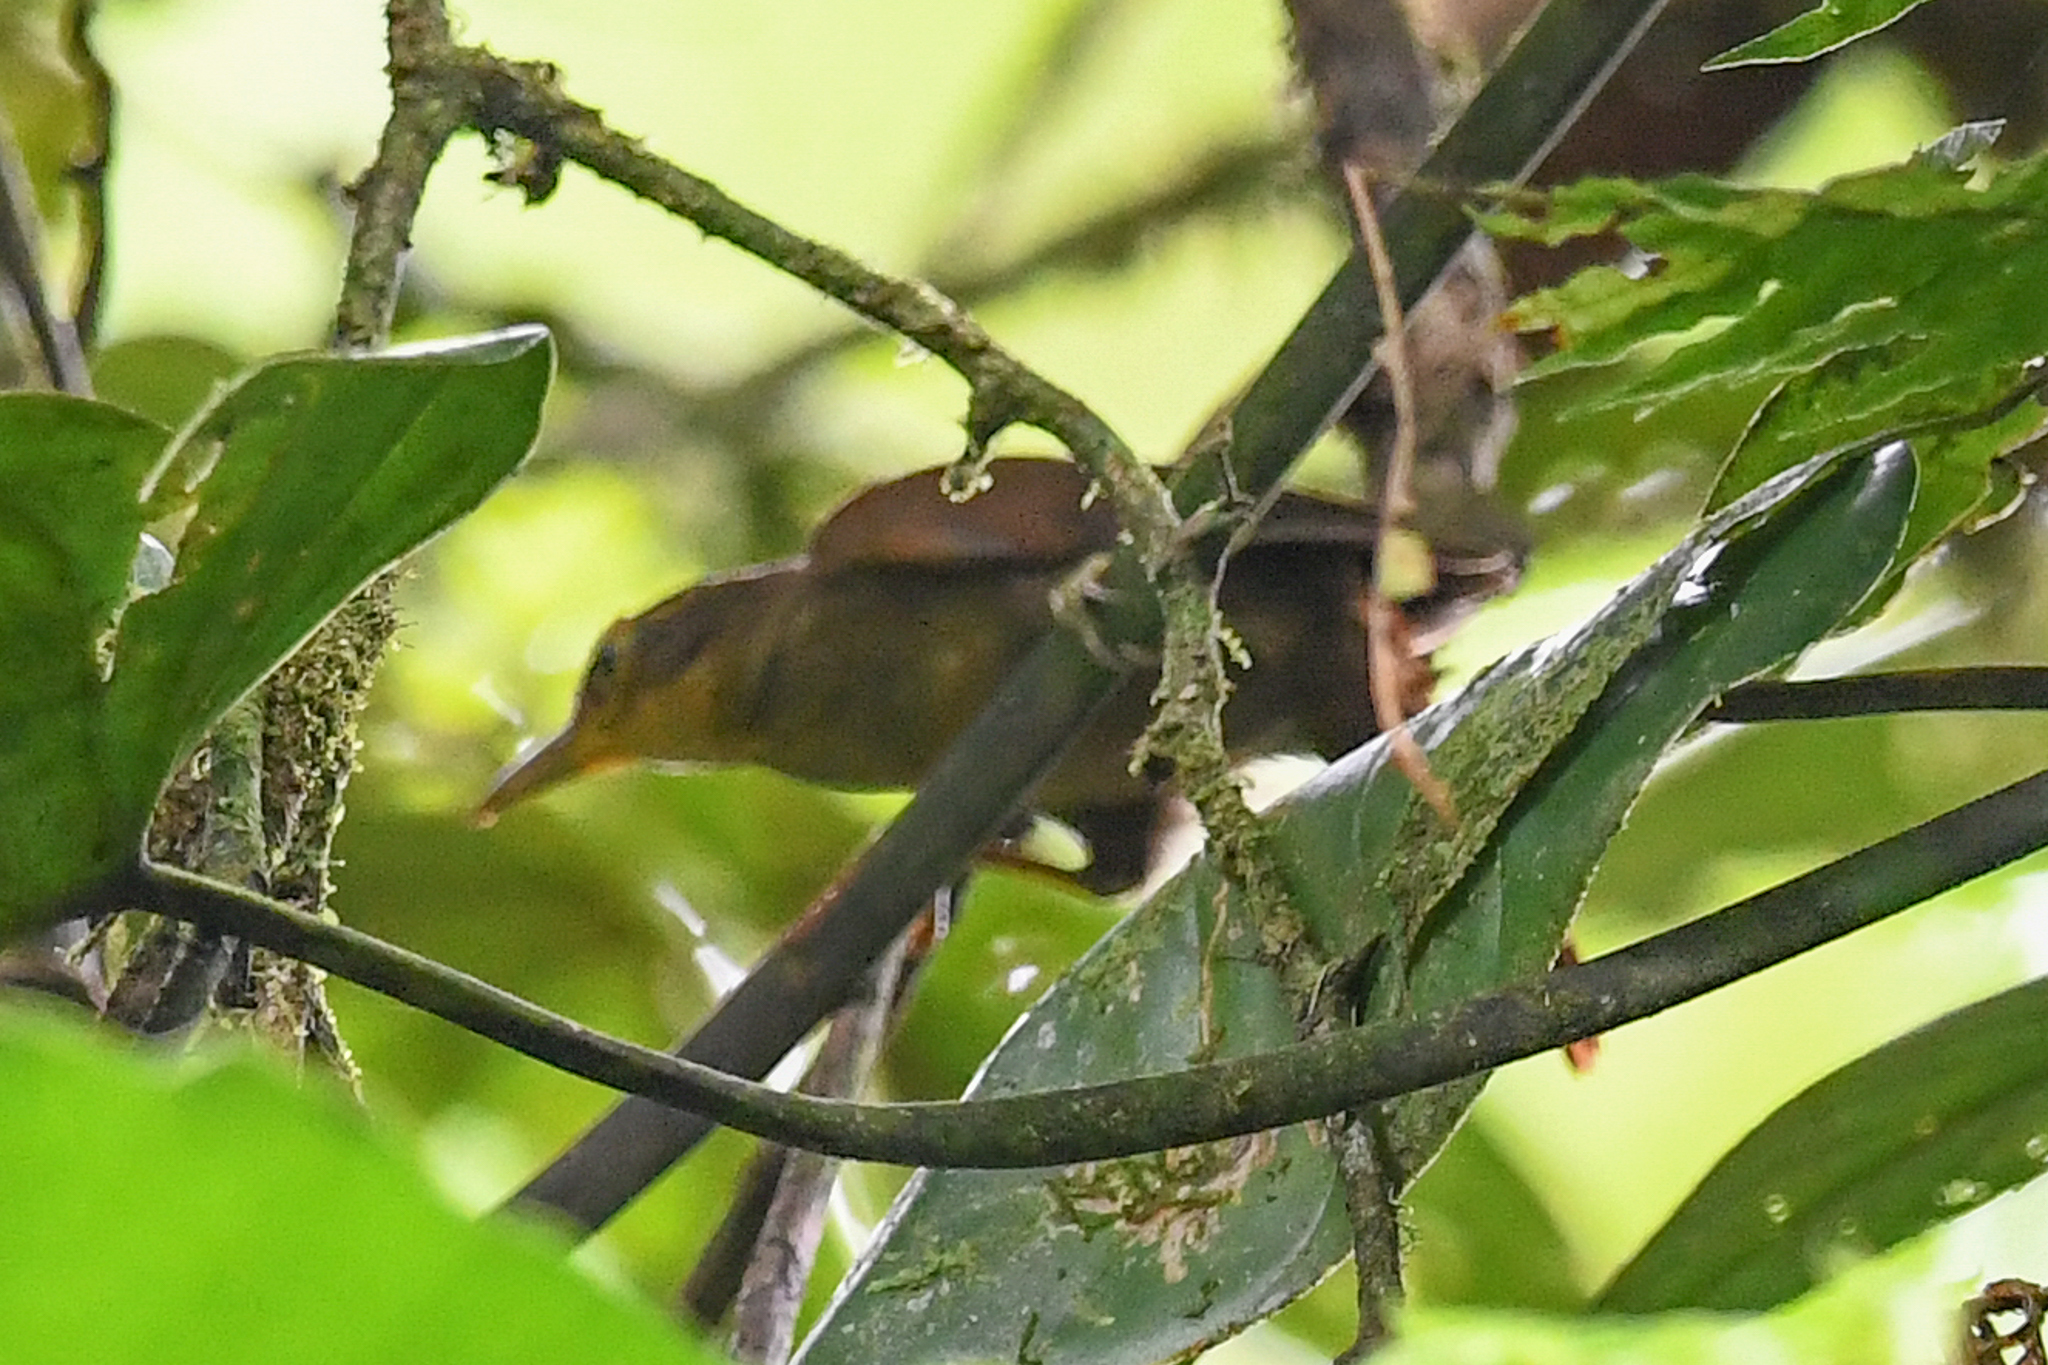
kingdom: Animalia
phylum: Chordata
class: Aves
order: Passeriformes
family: Furnariidae
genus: Automolus
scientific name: Automolus ochrolaemus
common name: Buff-throated foliage-gleaner
